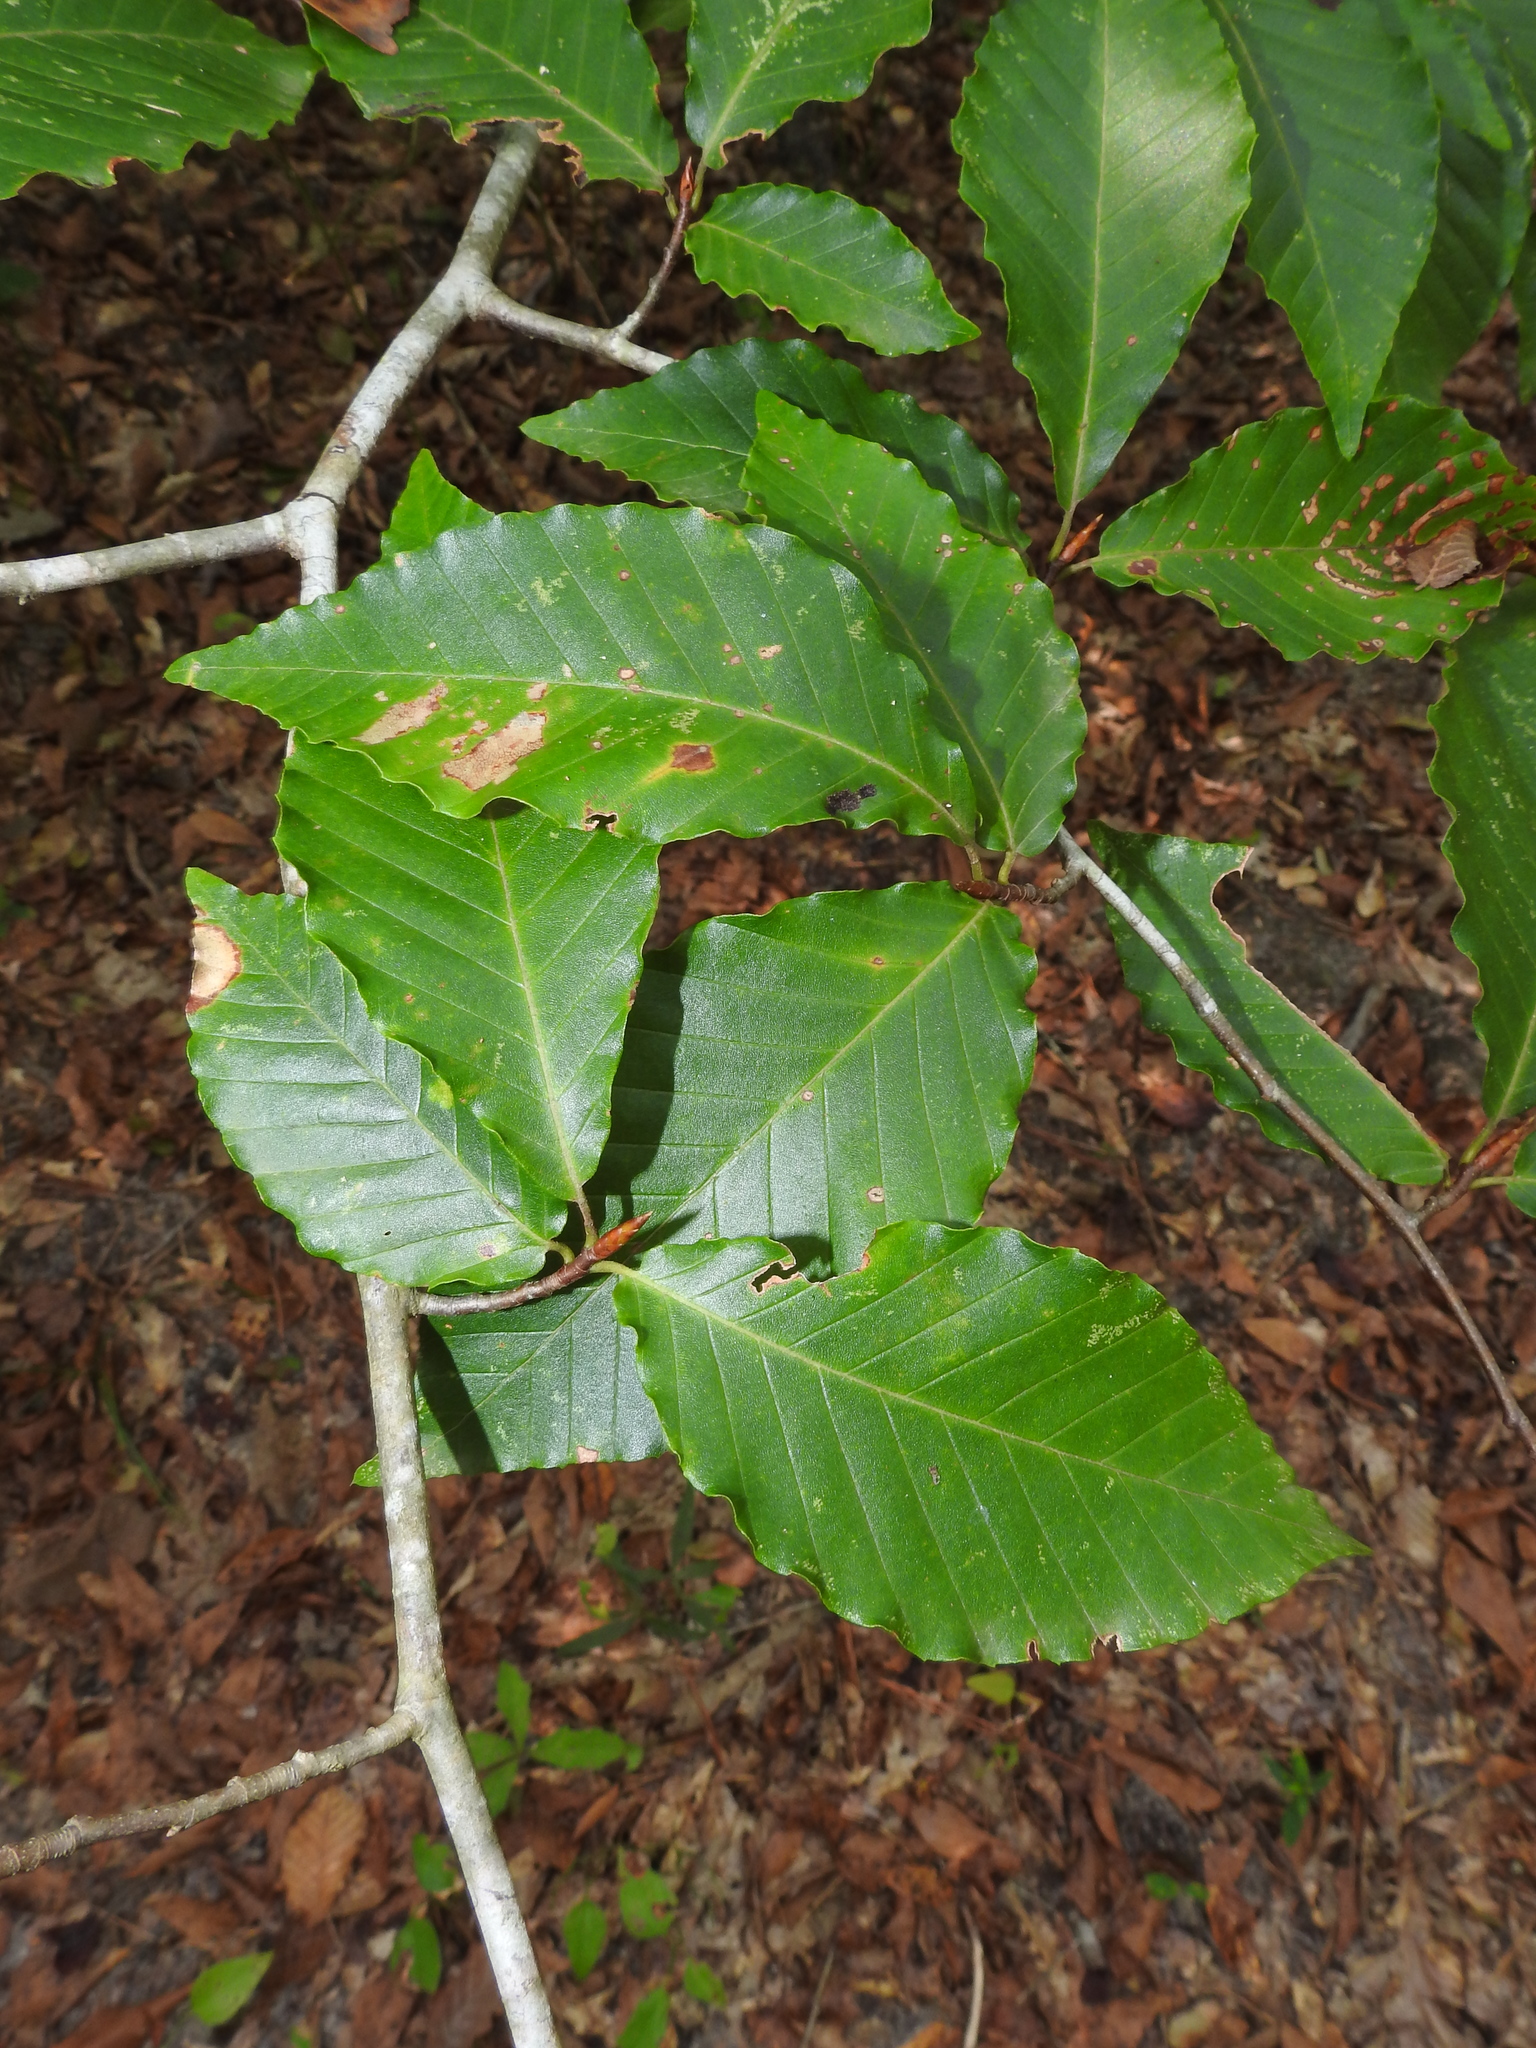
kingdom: Plantae
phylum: Tracheophyta
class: Magnoliopsida
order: Fagales
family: Fagaceae
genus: Fagus
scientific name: Fagus grandifolia
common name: American beech
